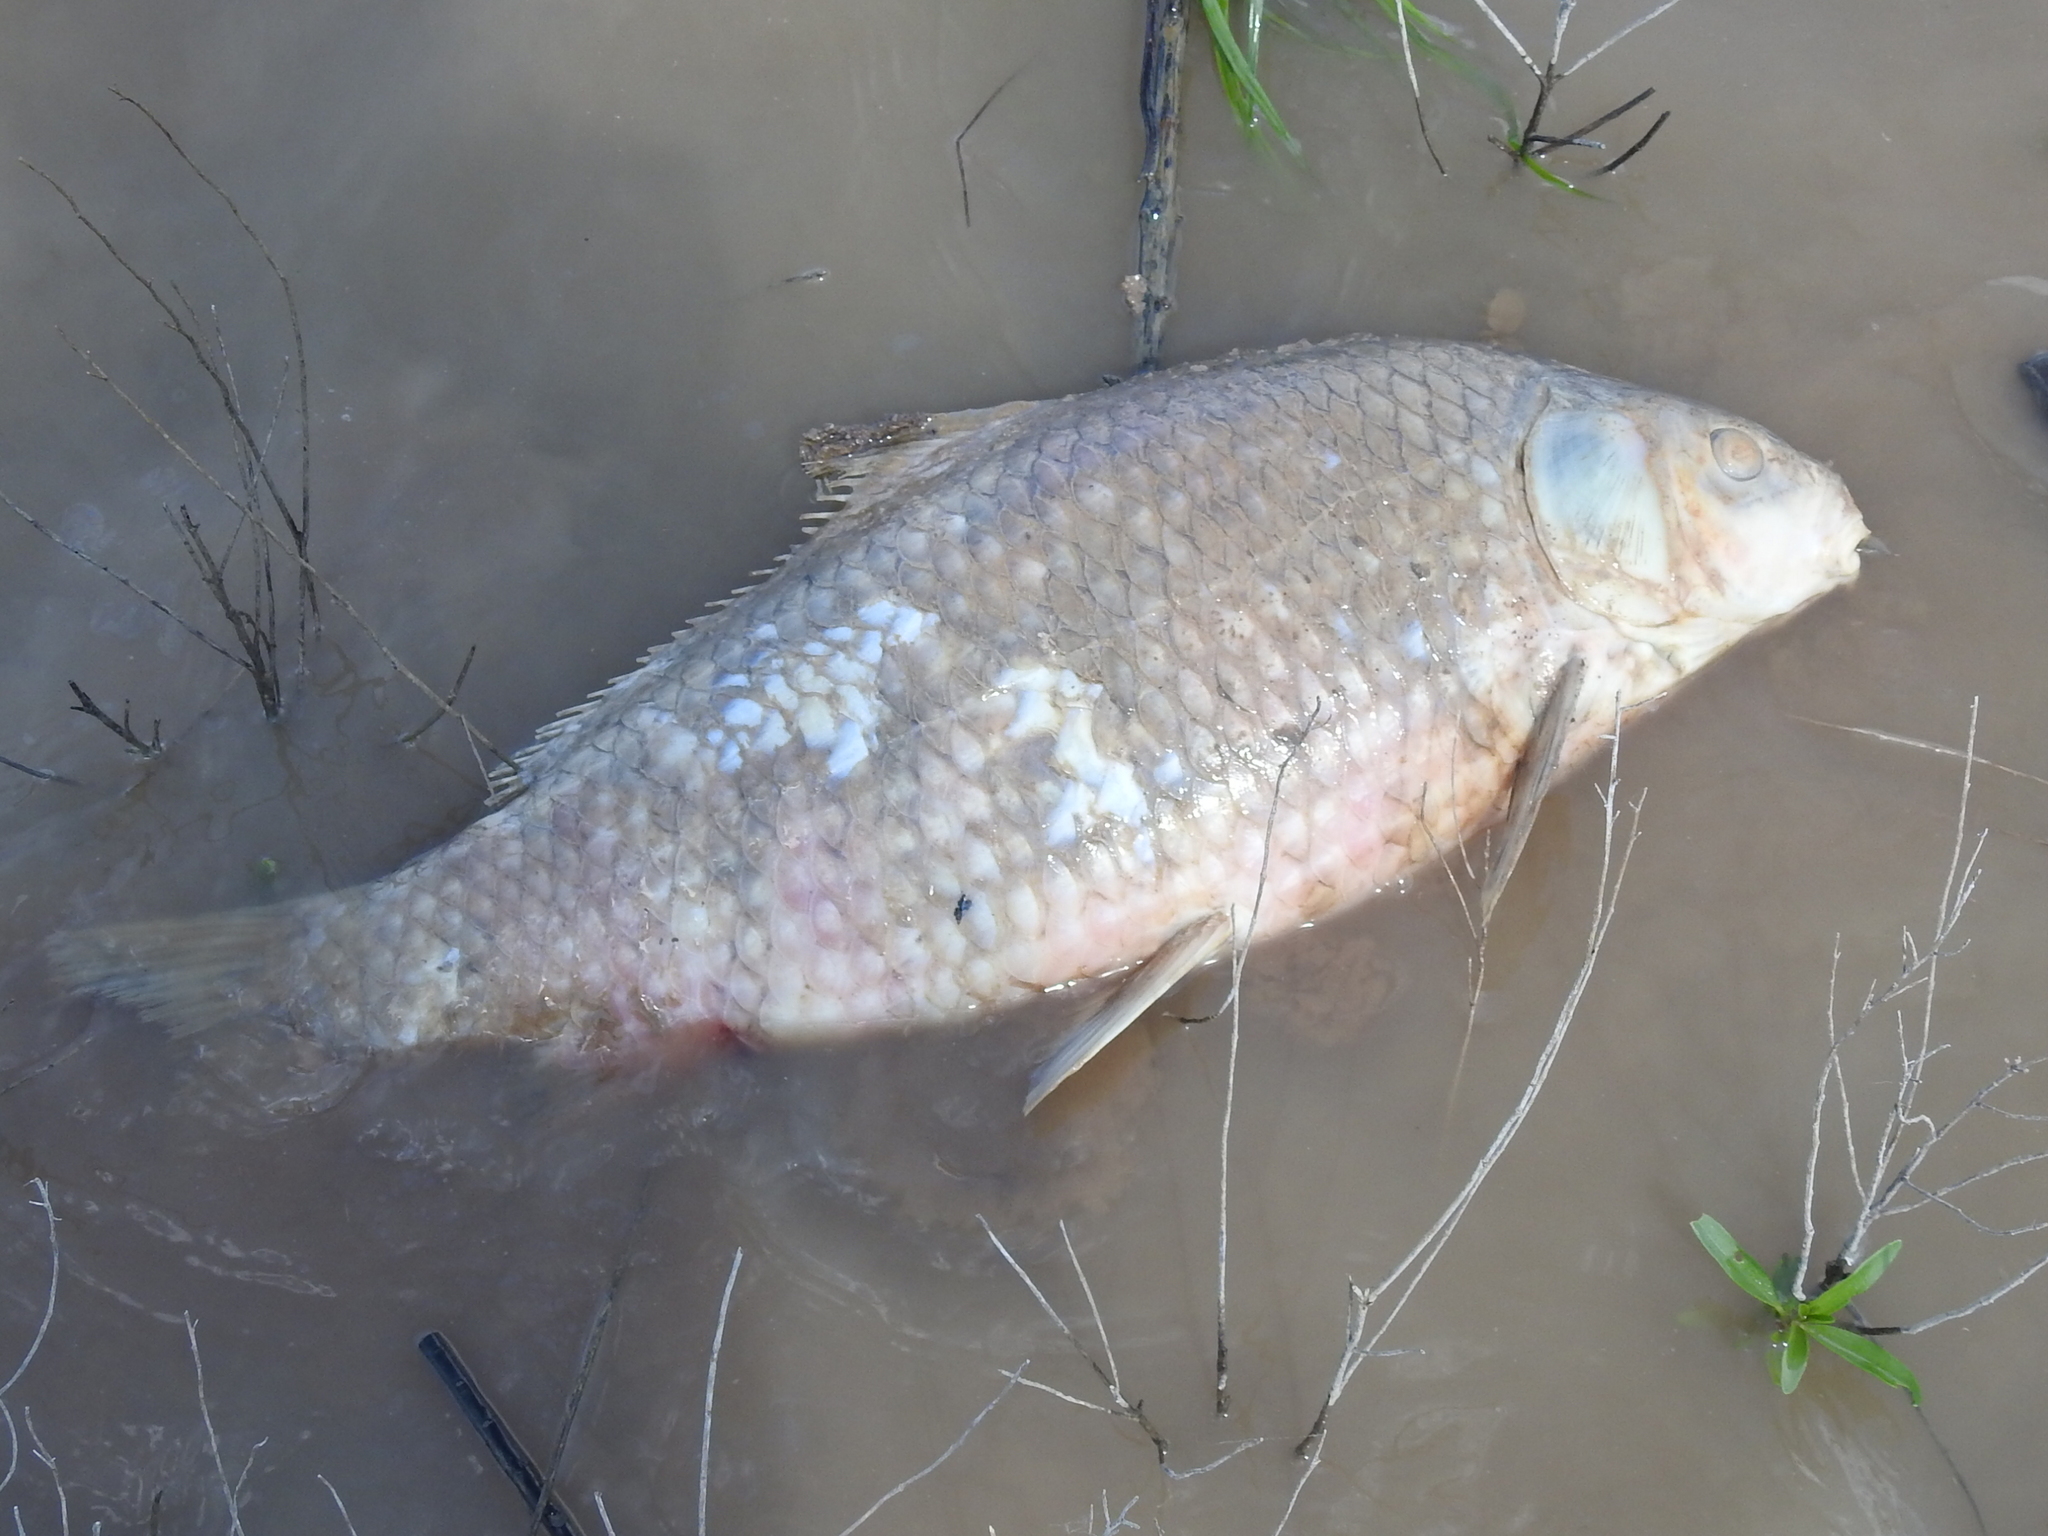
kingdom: Animalia
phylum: Chordata
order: Cypriniformes
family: Catostomidae
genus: Ictiobus
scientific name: Ictiobus bubalus
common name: Smallmouth buffalo
